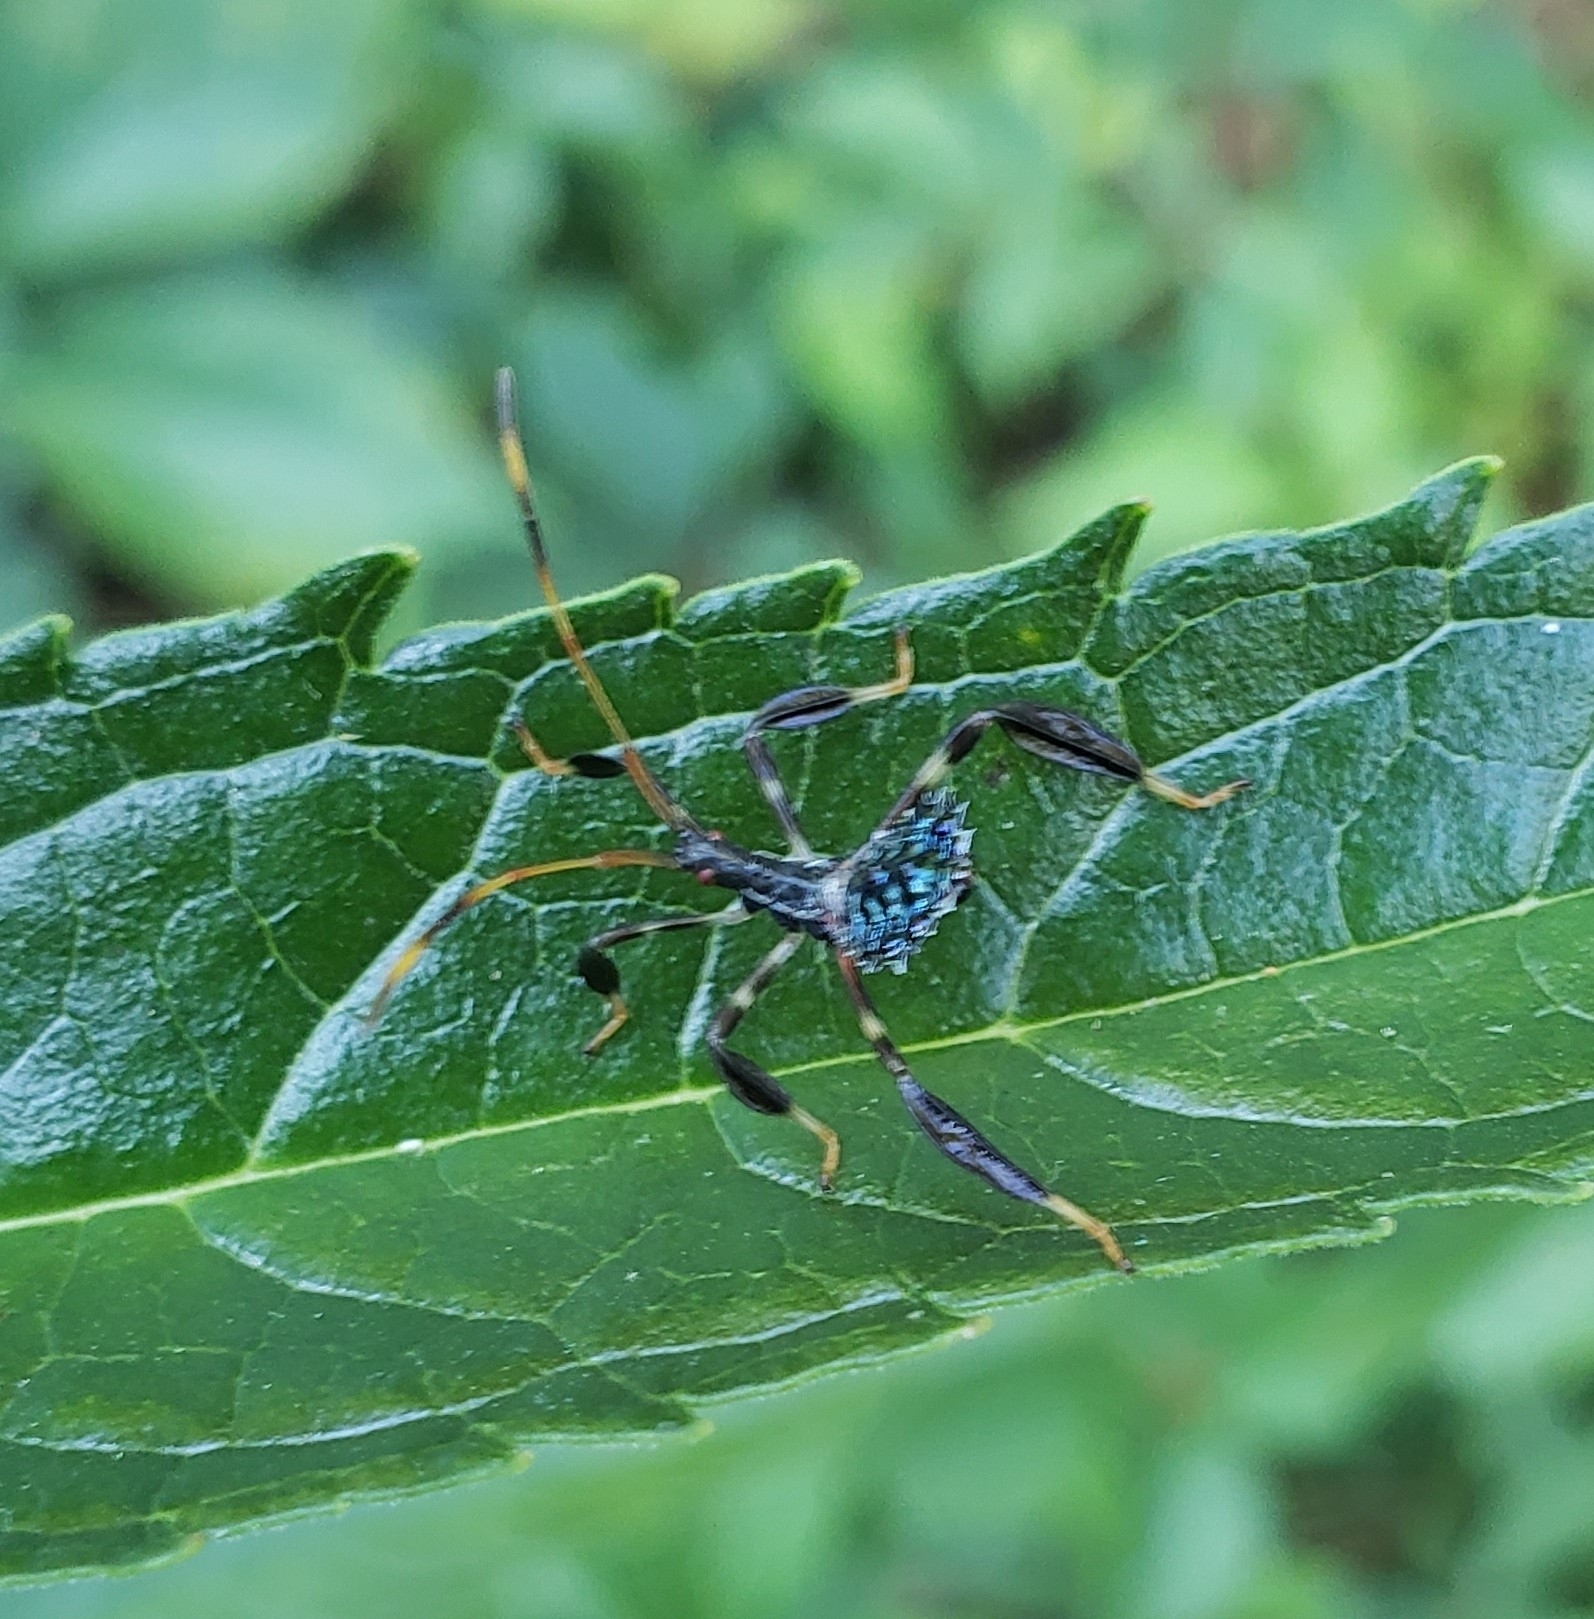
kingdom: Animalia
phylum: Arthropoda
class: Insecta
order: Hemiptera
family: Coreidae
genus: Acanthocephala
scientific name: Acanthocephala terminalis
